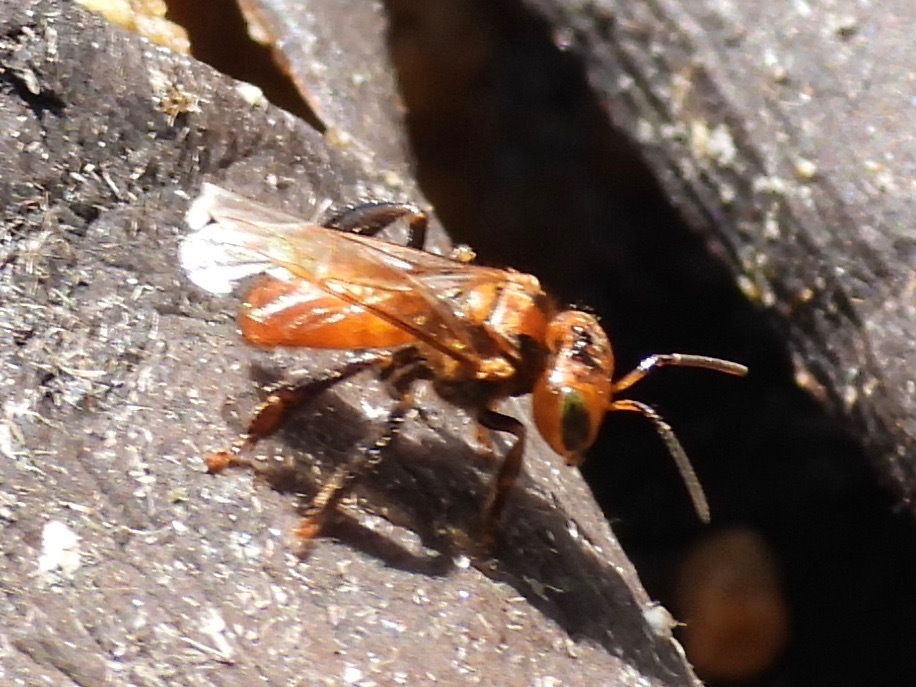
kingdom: Animalia
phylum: Arthropoda
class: Insecta
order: Hymenoptera
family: Apidae
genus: Oxytrigona
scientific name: Oxytrigona mediorufa
